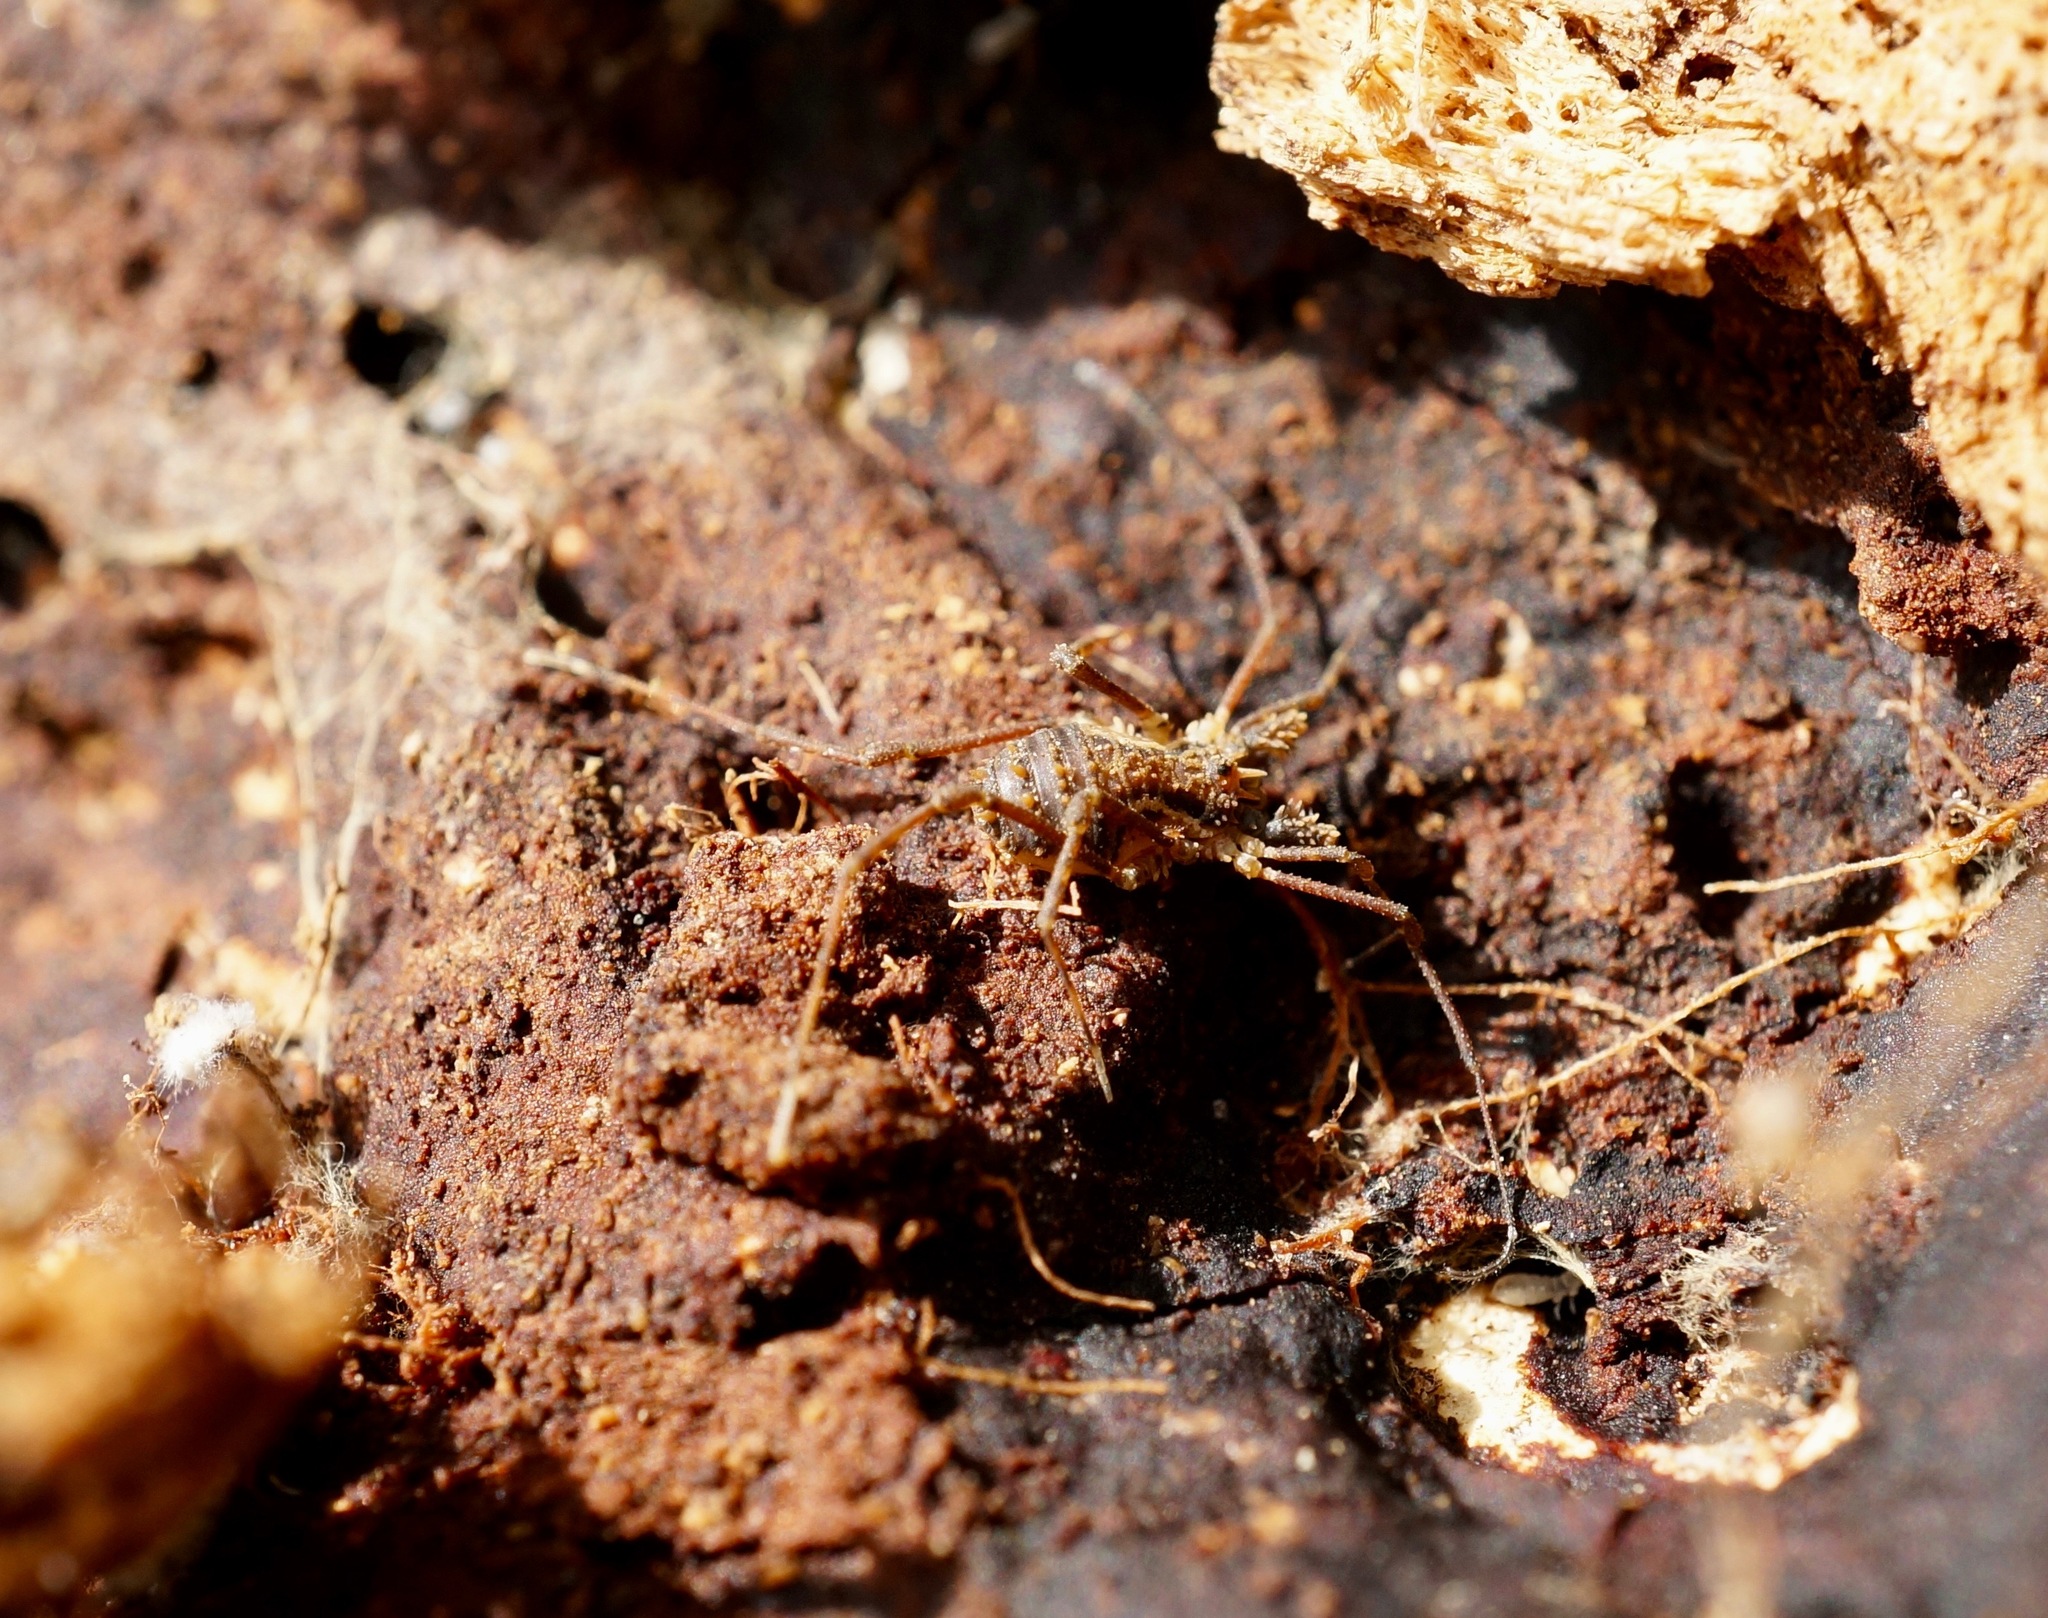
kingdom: Animalia
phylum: Arthropoda
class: Arachnida
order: Opiliones
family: Triaenonychidae
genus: Algidia
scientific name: Algidia chiltoni
